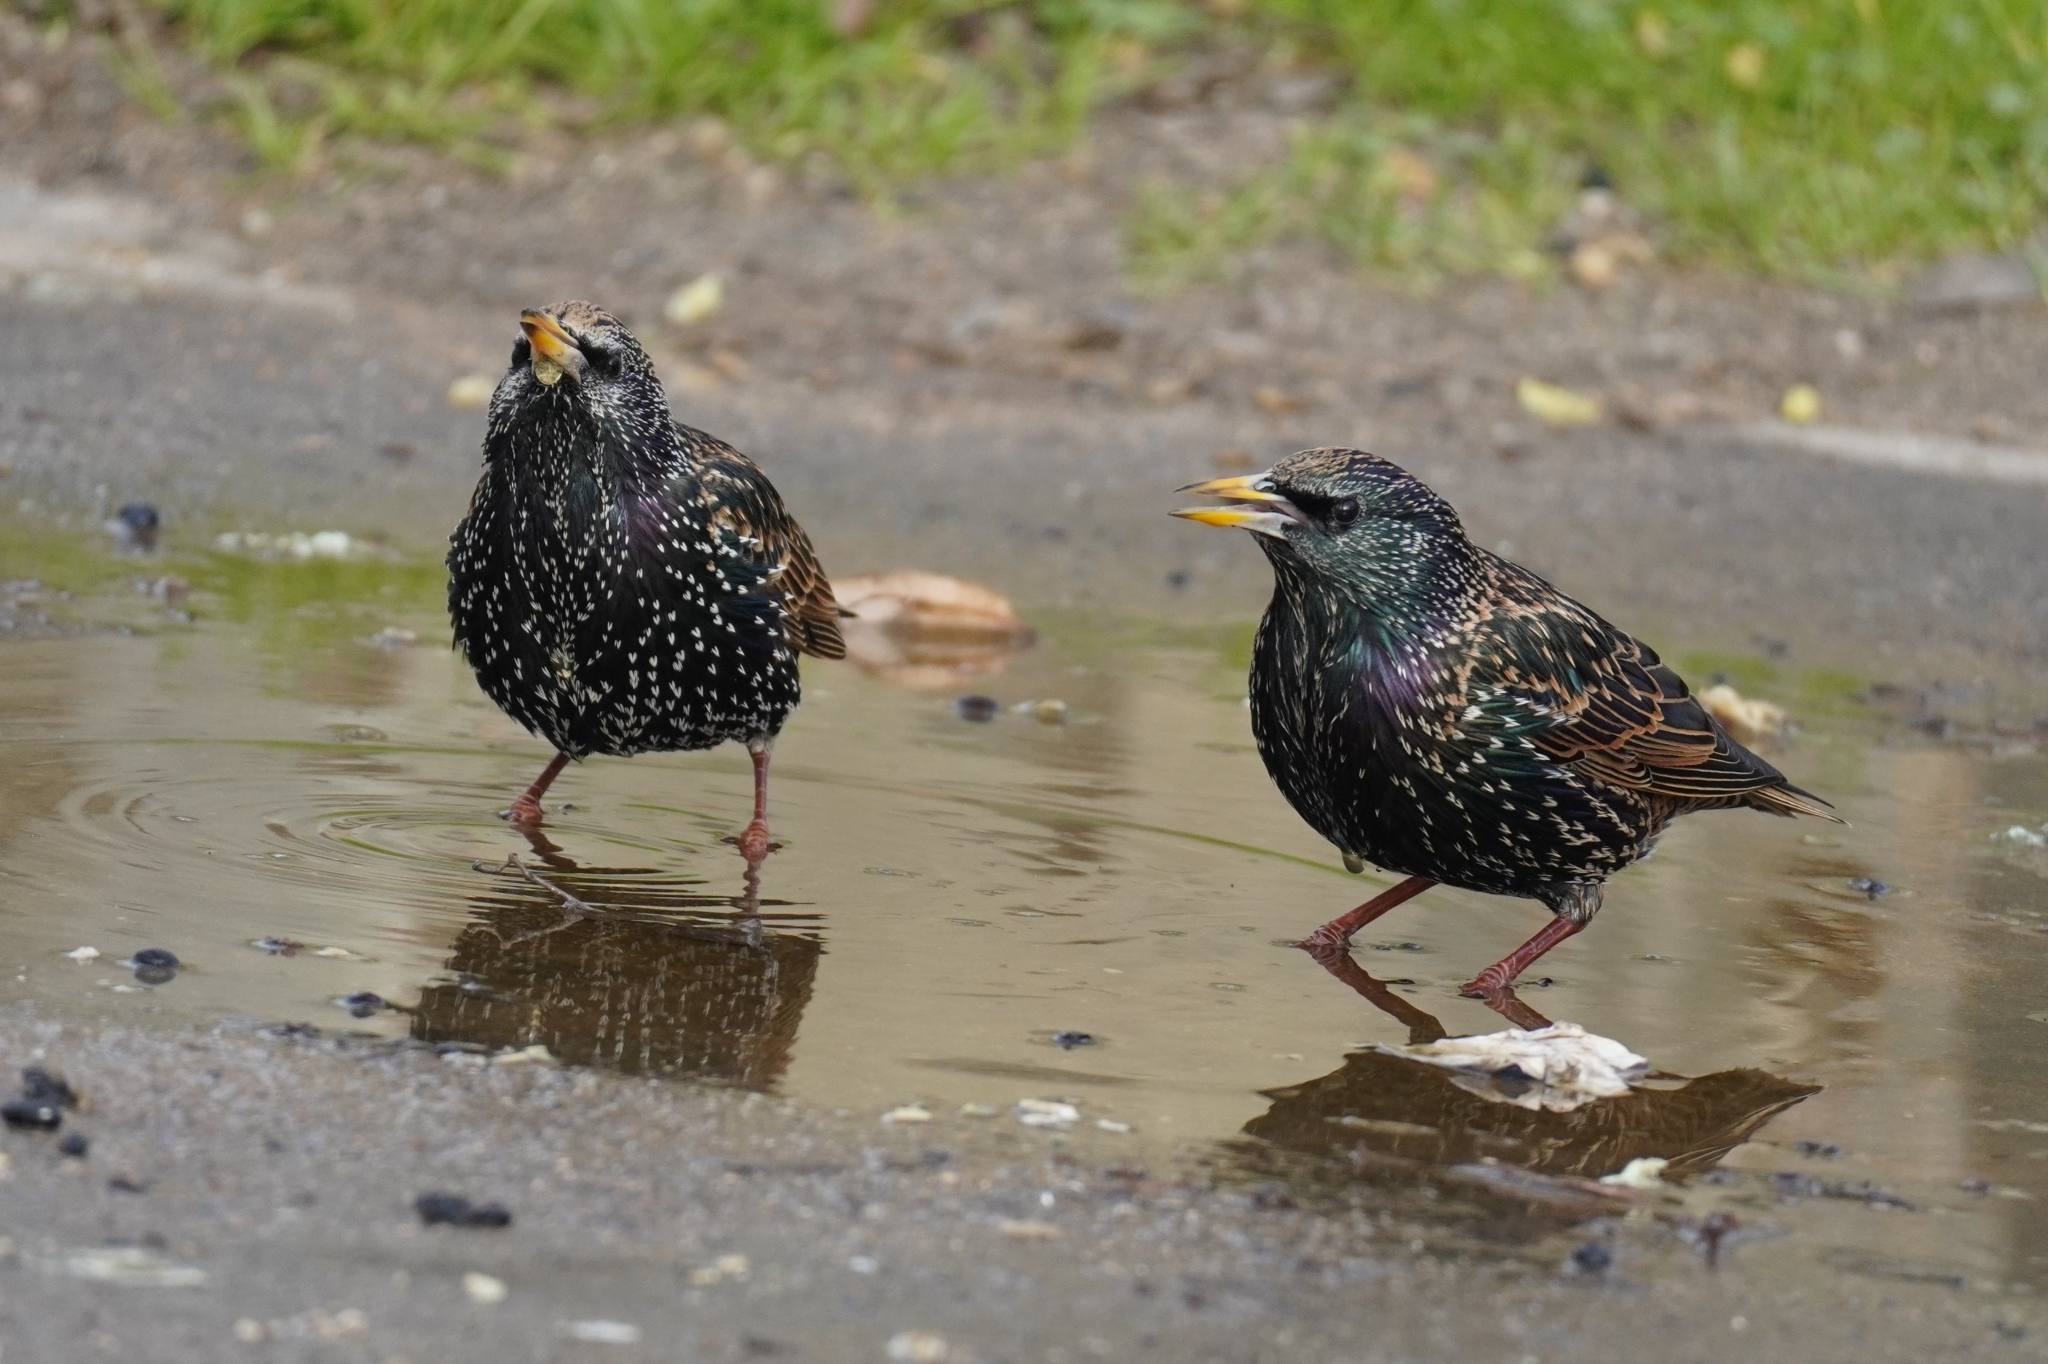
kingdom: Animalia
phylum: Chordata
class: Aves
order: Passeriformes
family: Sturnidae
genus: Sturnus
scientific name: Sturnus vulgaris
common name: Common starling
